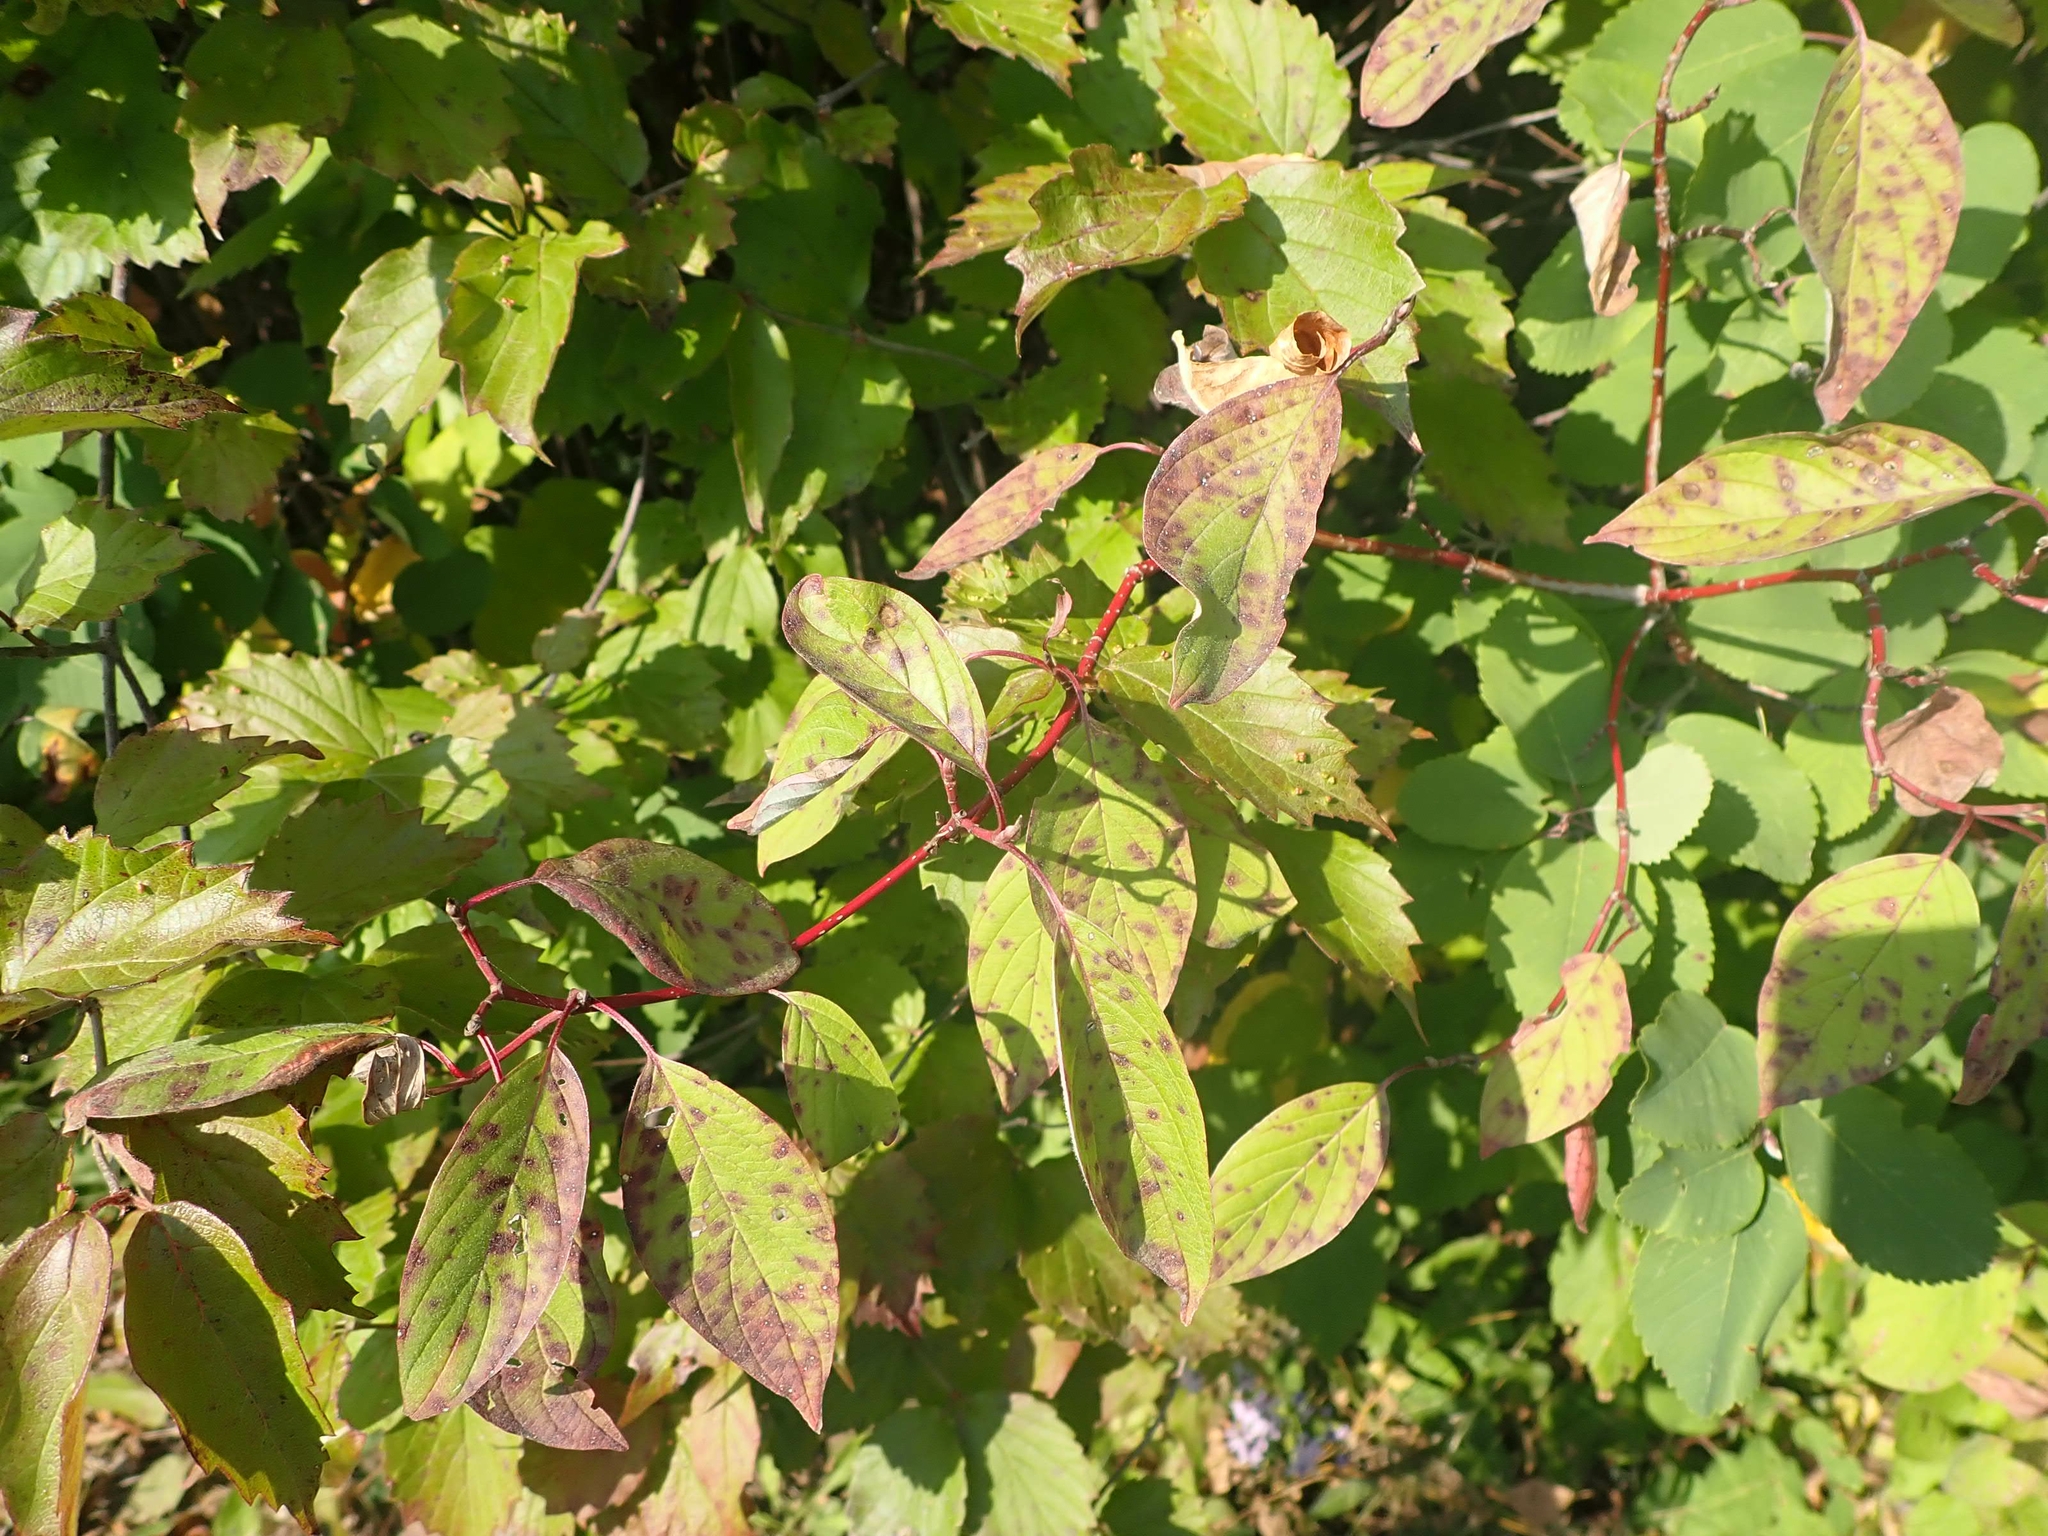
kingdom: Plantae
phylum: Tracheophyta
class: Magnoliopsida
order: Cornales
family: Cornaceae
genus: Cornus
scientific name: Cornus sericea
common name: Red-osier dogwood
